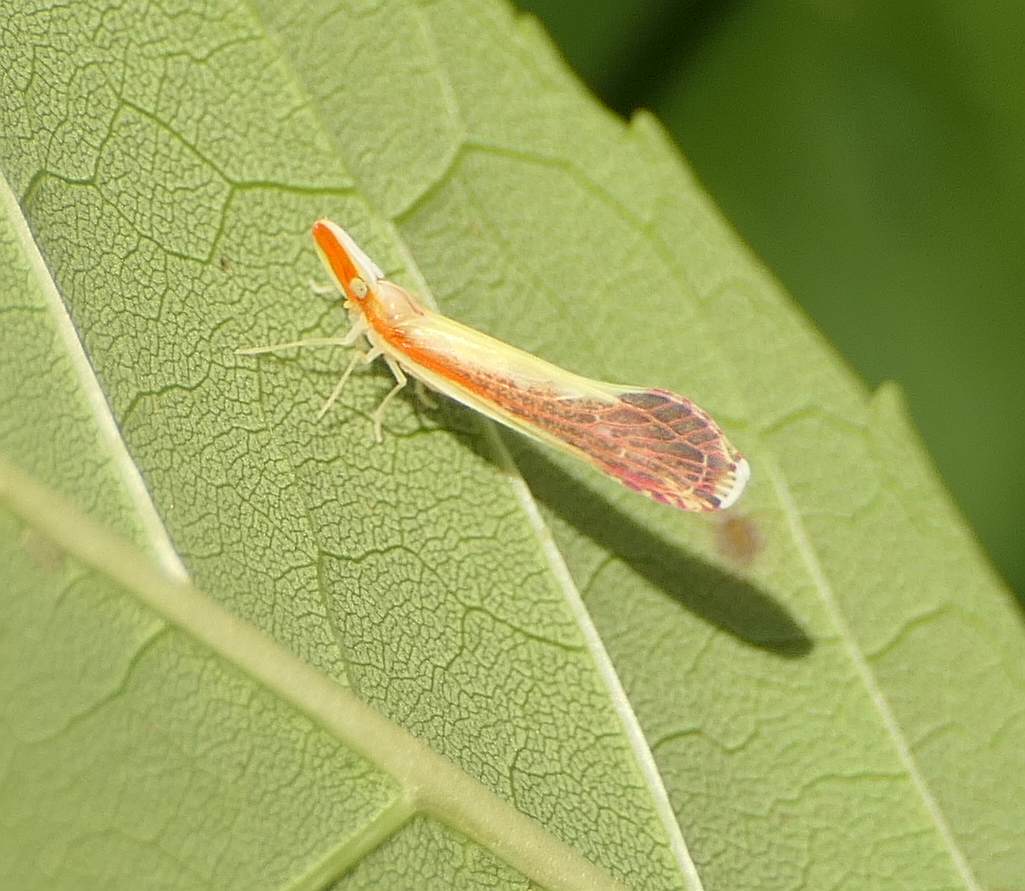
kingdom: Animalia
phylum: Arthropoda
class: Insecta
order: Hemiptera
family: Derbidae
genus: Shellenius
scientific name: Shellenius ballii
